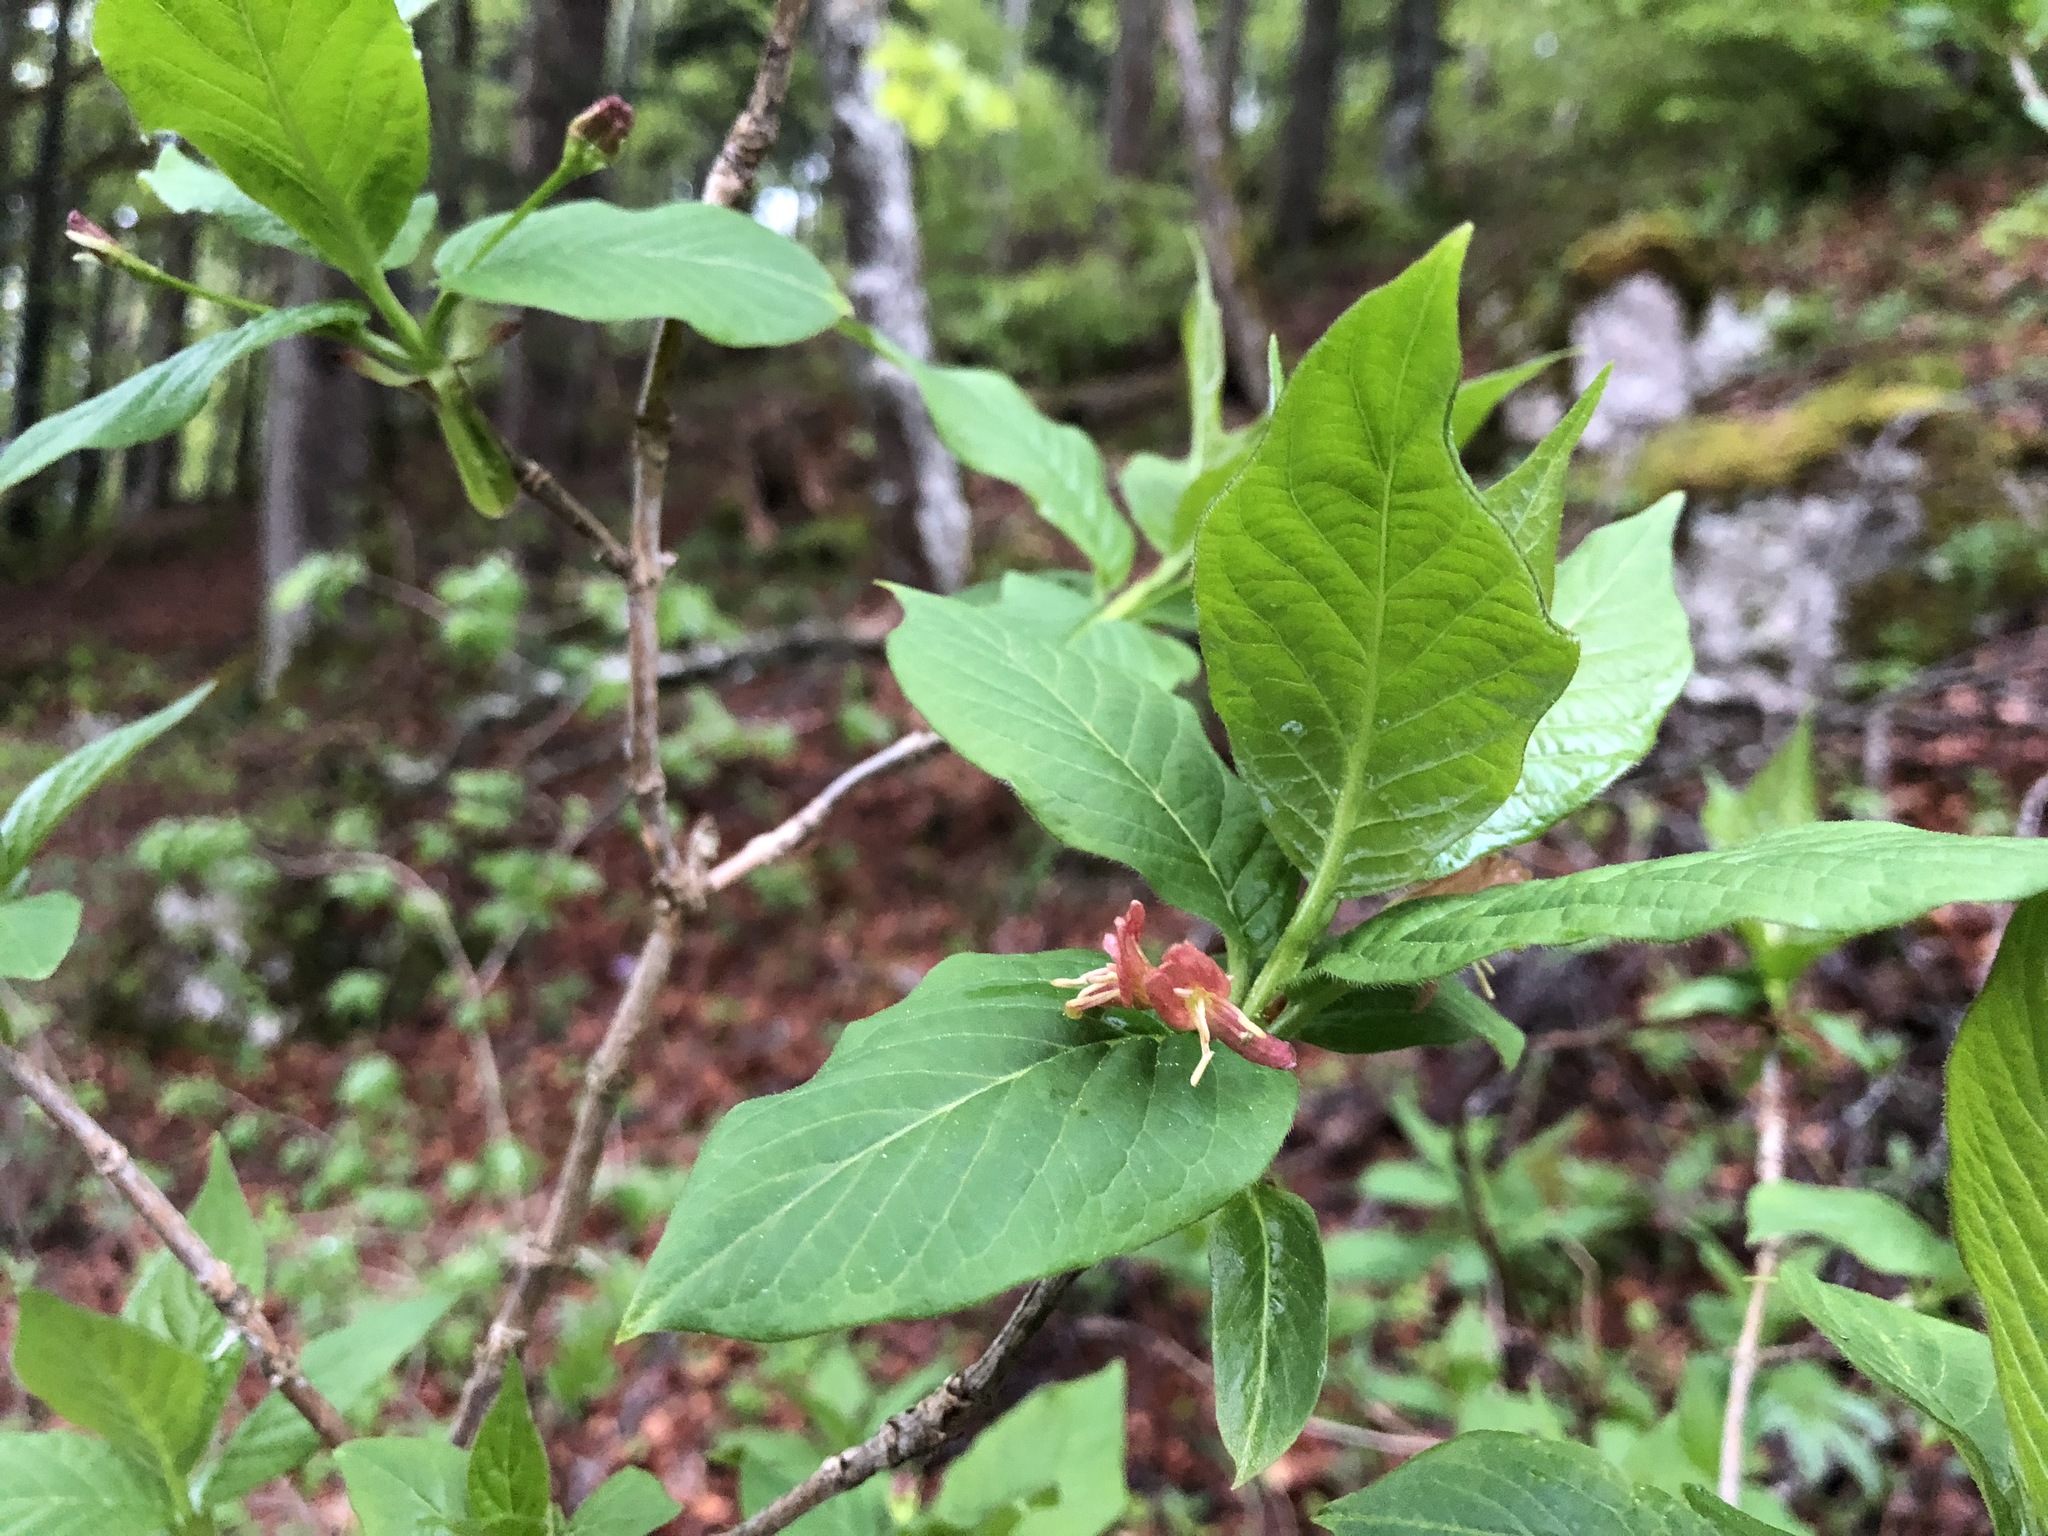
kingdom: Plantae
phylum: Tracheophyta
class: Magnoliopsida
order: Dipsacales
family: Caprifoliaceae
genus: Lonicera
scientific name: Lonicera alpigena
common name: Alpine honeysuckle
